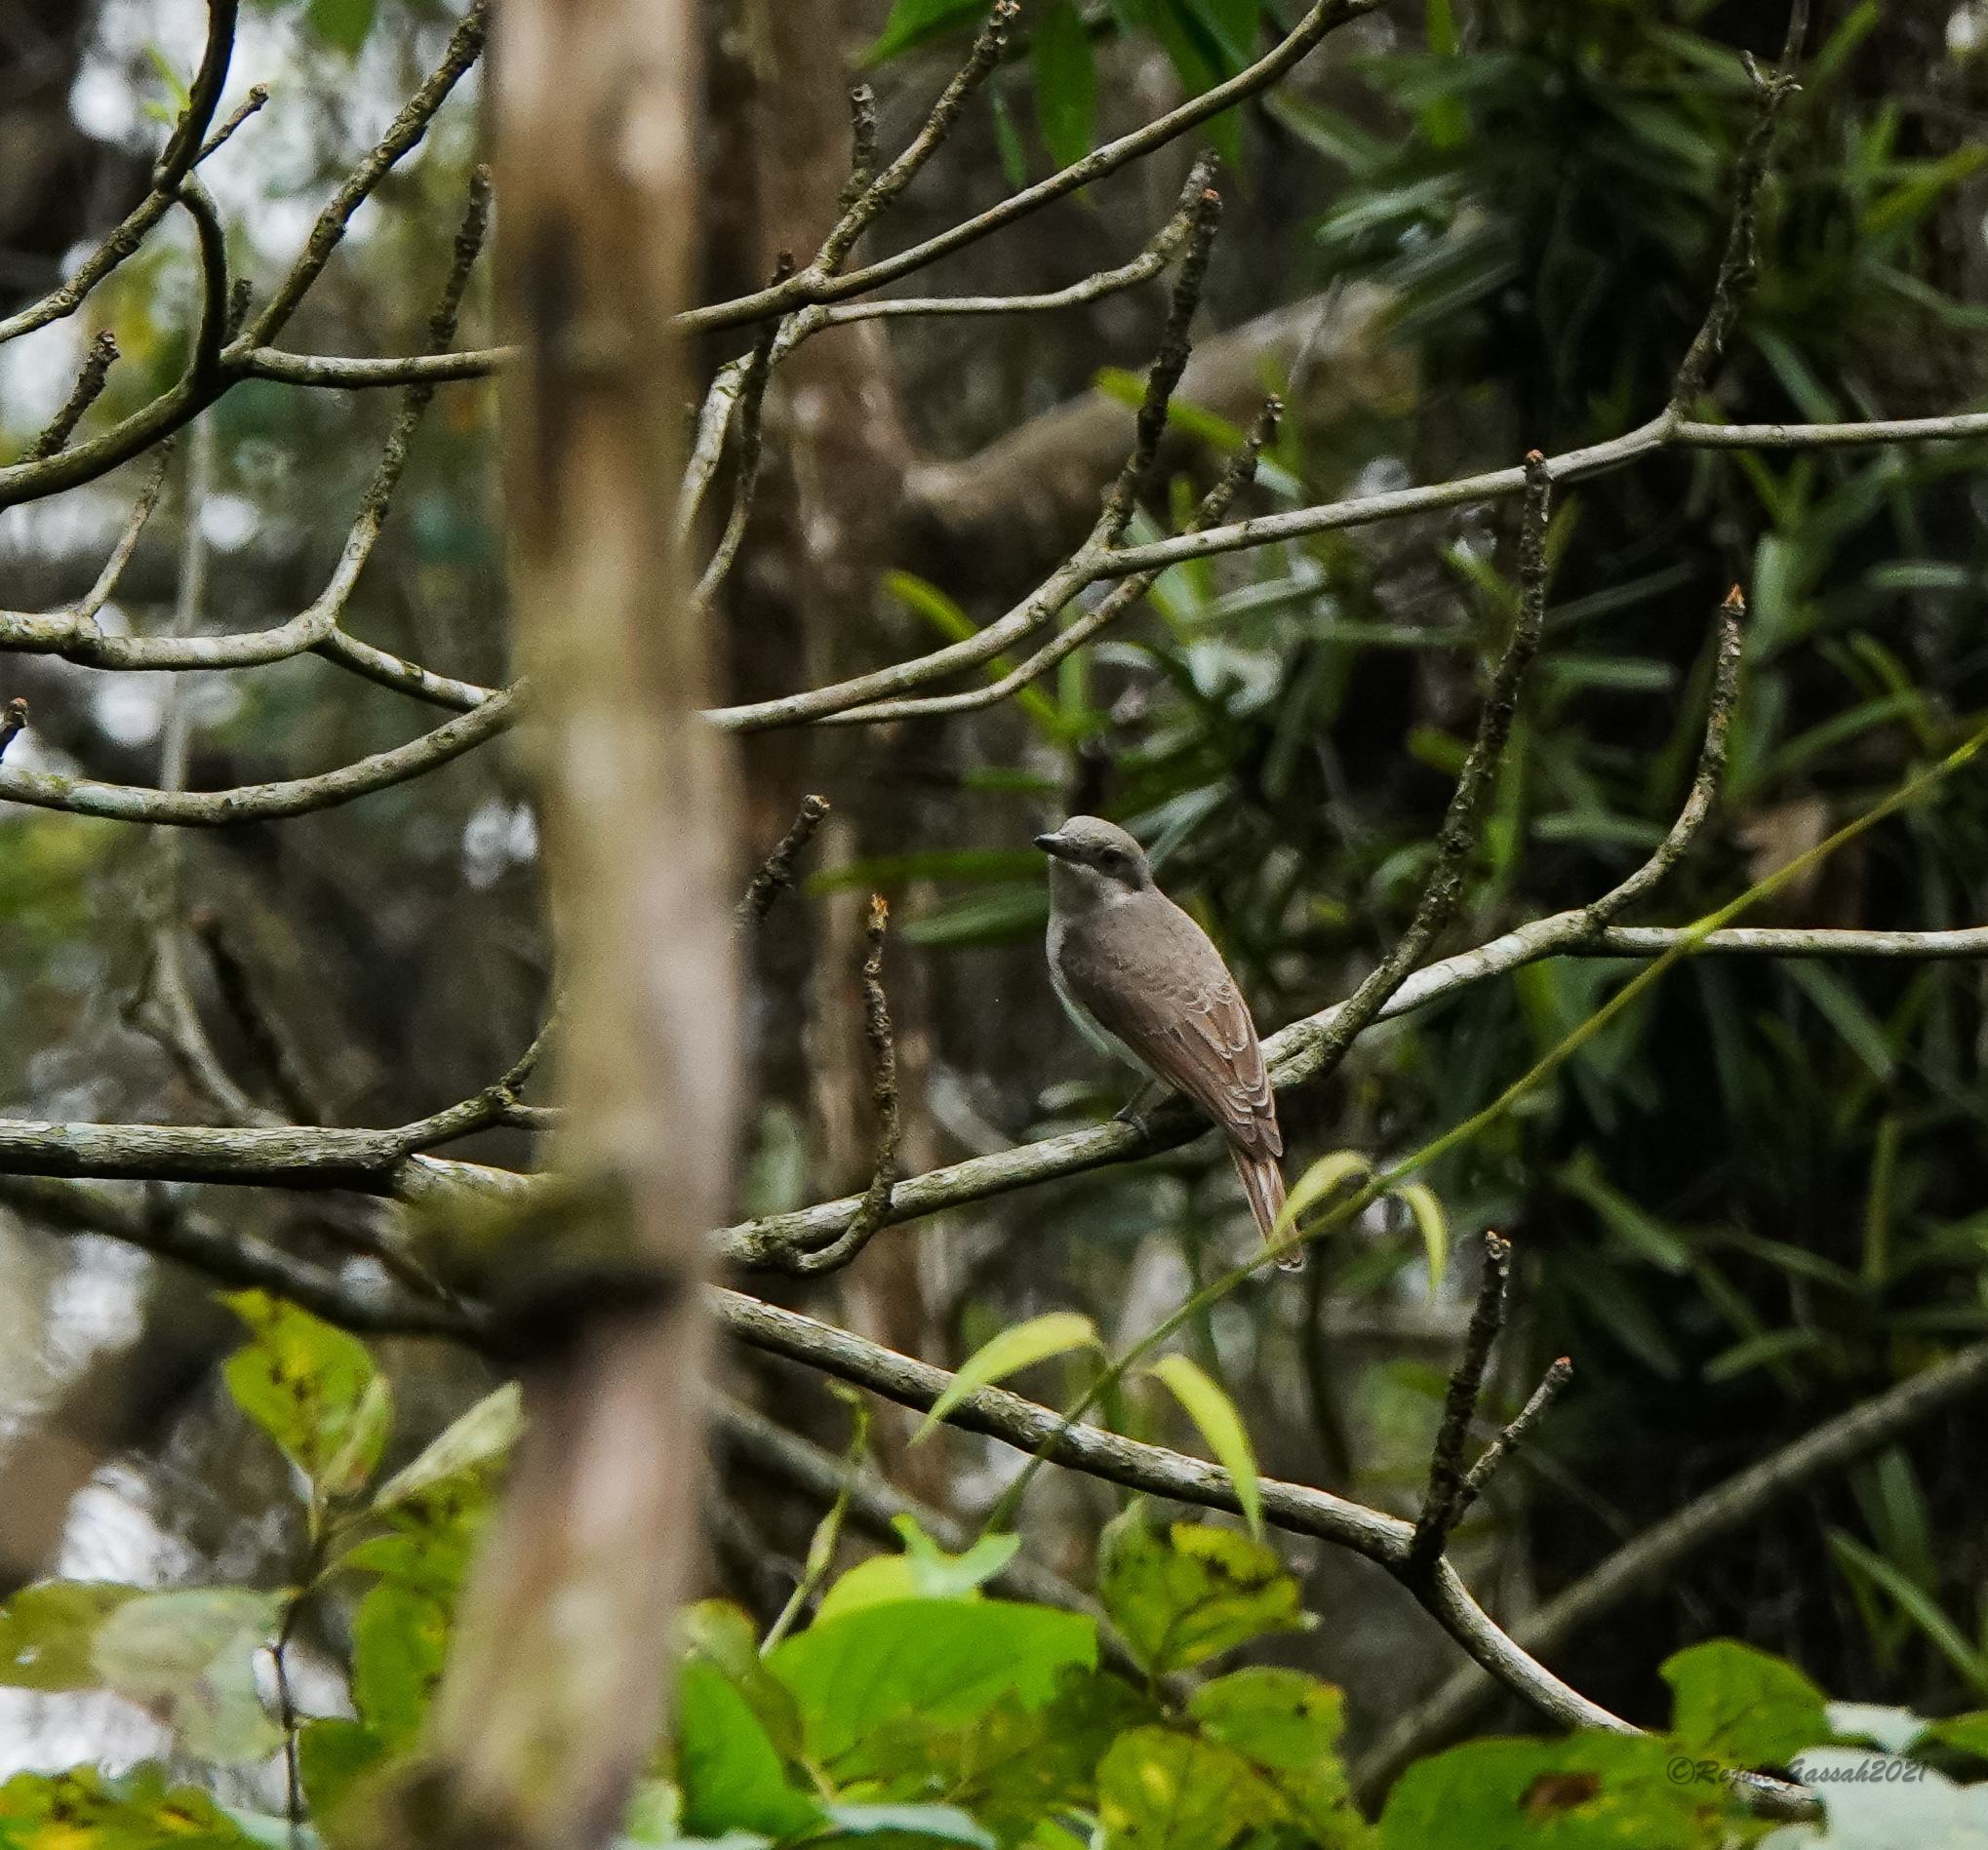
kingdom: Animalia
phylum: Chordata
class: Aves
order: Passeriformes
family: Tephrodornithidae
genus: Tephrodornis
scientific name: Tephrodornis virgatus
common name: Large woodshrike
